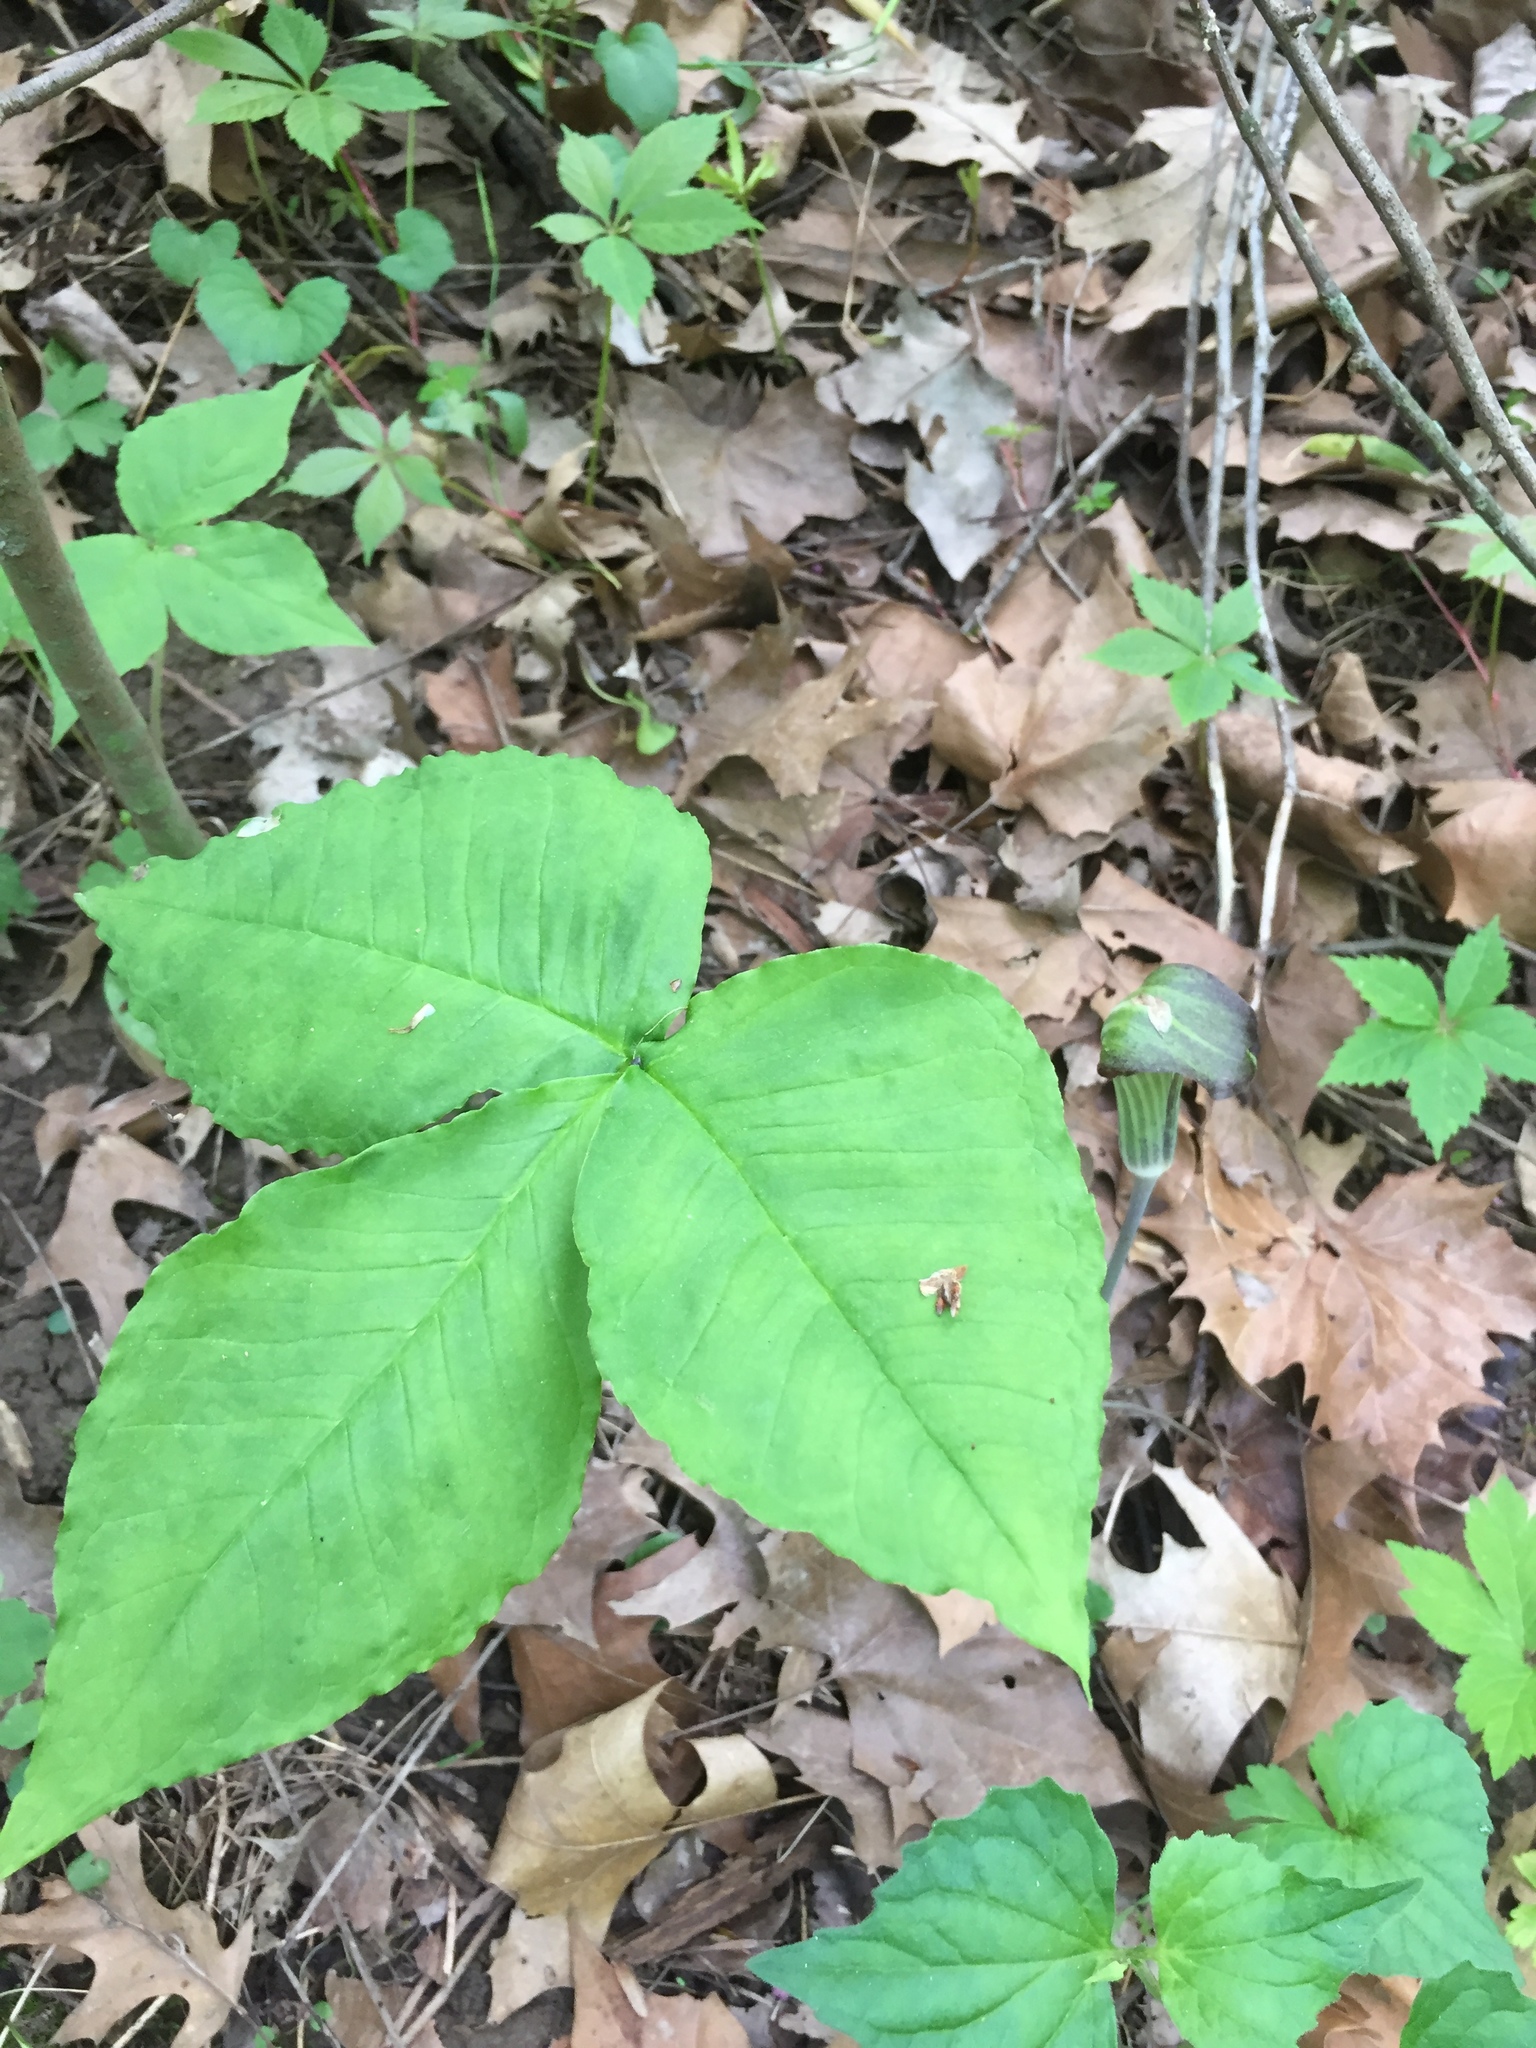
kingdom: Plantae
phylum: Tracheophyta
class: Liliopsida
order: Alismatales
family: Araceae
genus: Arisaema
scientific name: Arisaema triphyllum
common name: Jack-in-the-pulpit
